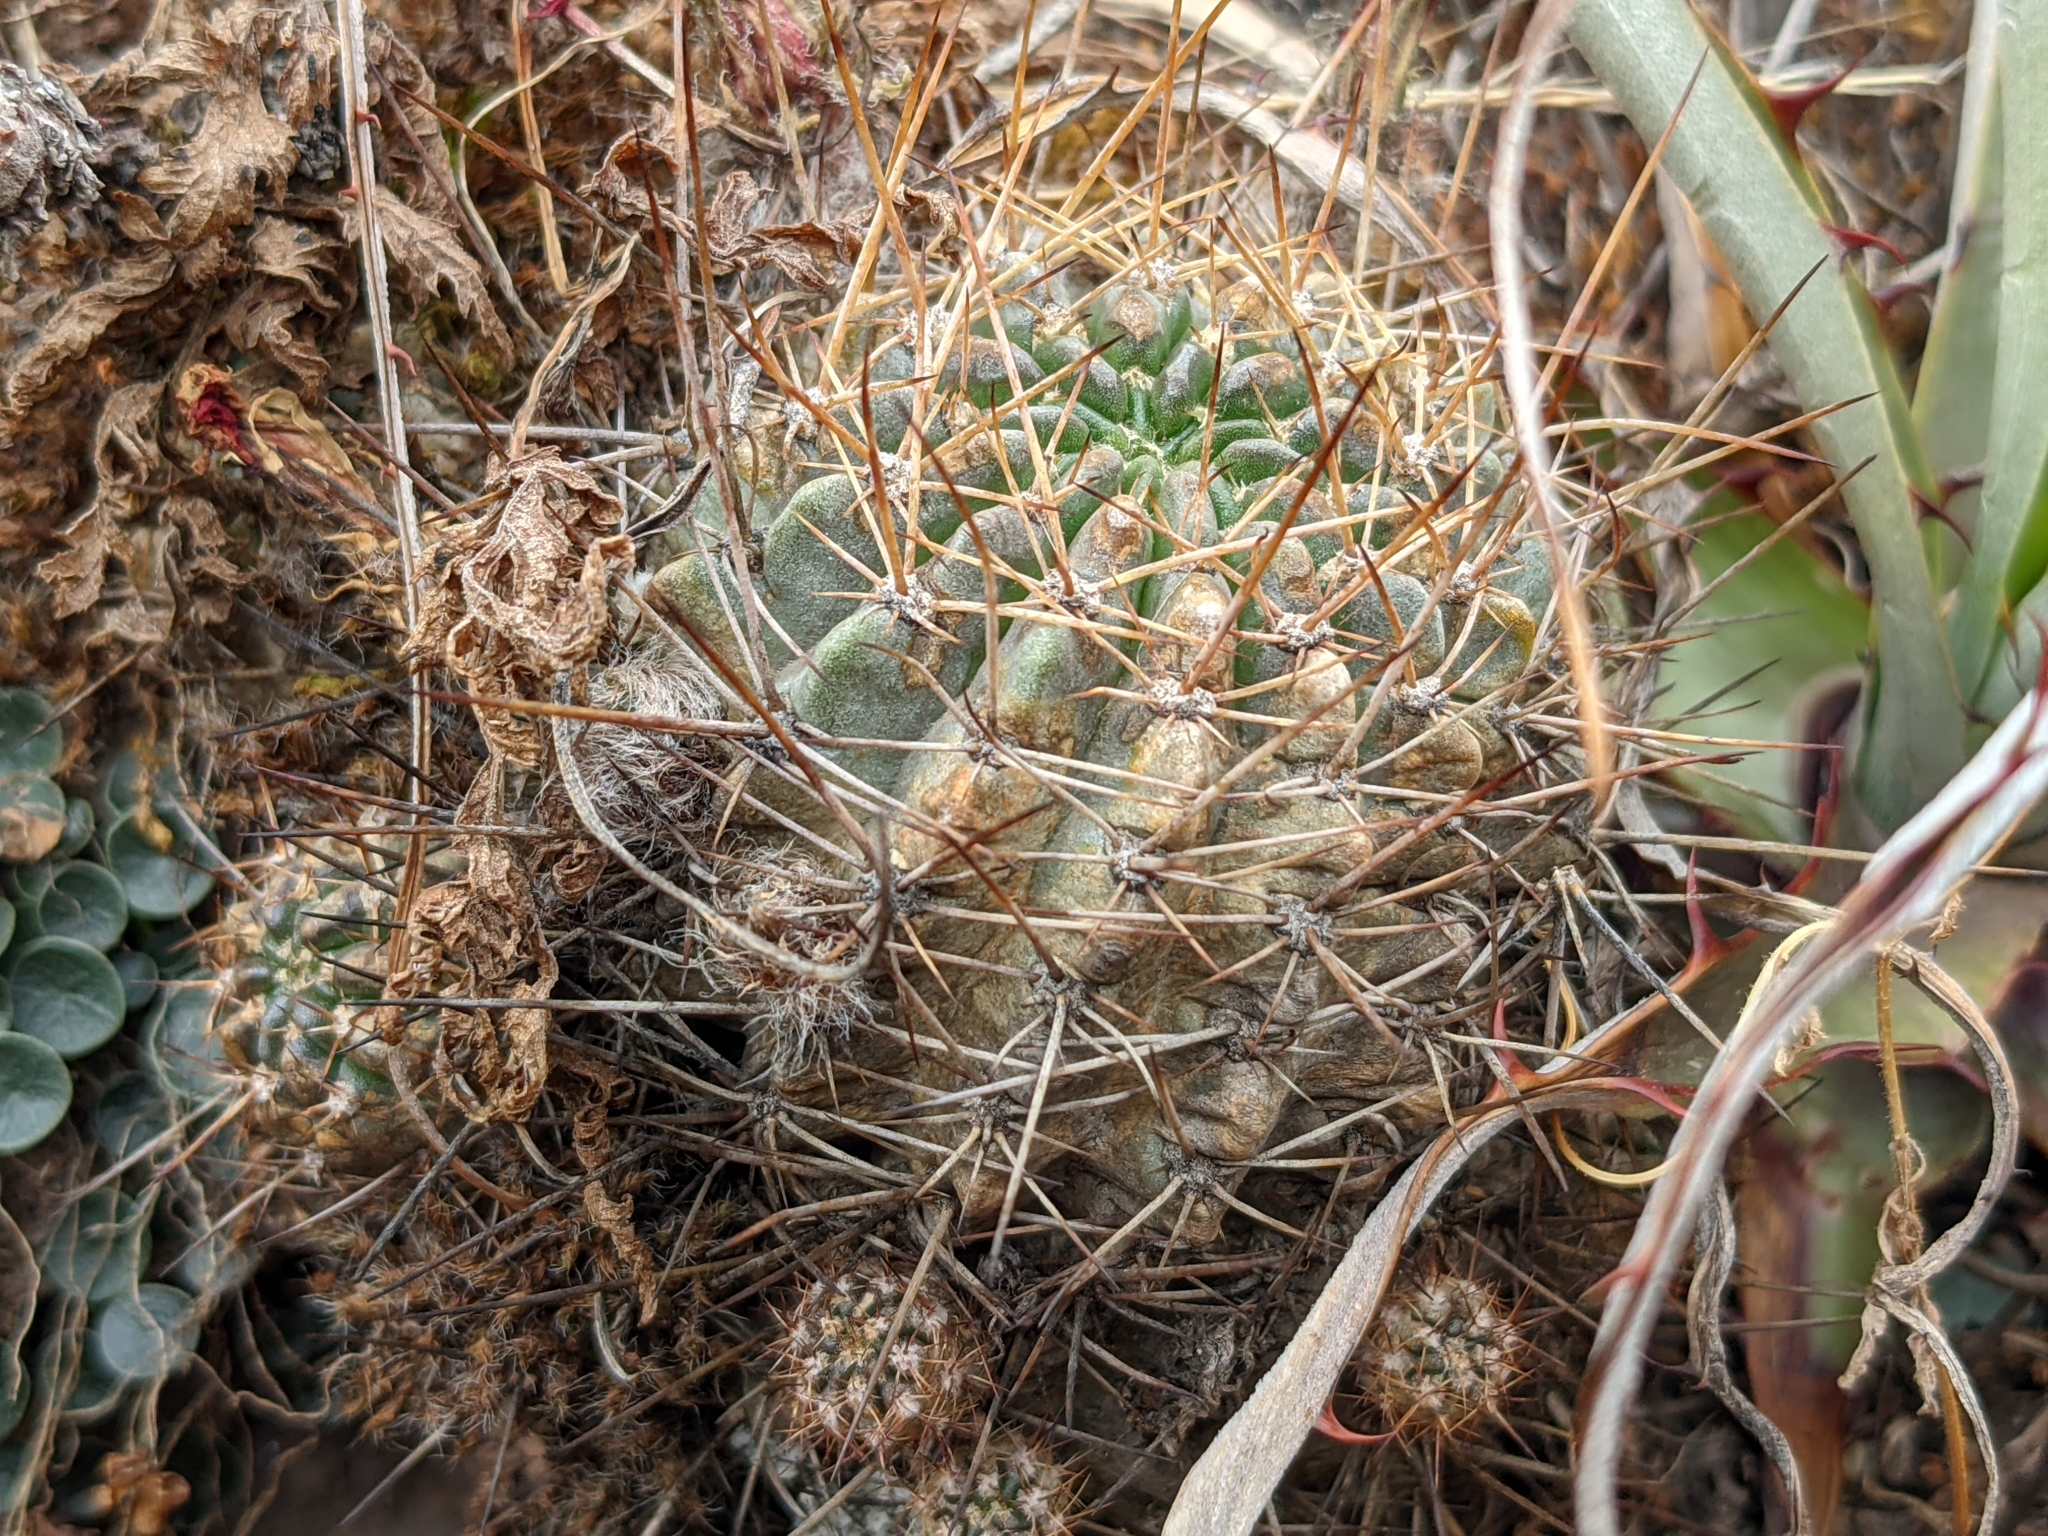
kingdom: Plantae
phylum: Tracheophyta
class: Magnoliopsida
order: Caryophyllales
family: Cactaceae
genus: Lobivia
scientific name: Lobivia hertrichiana
